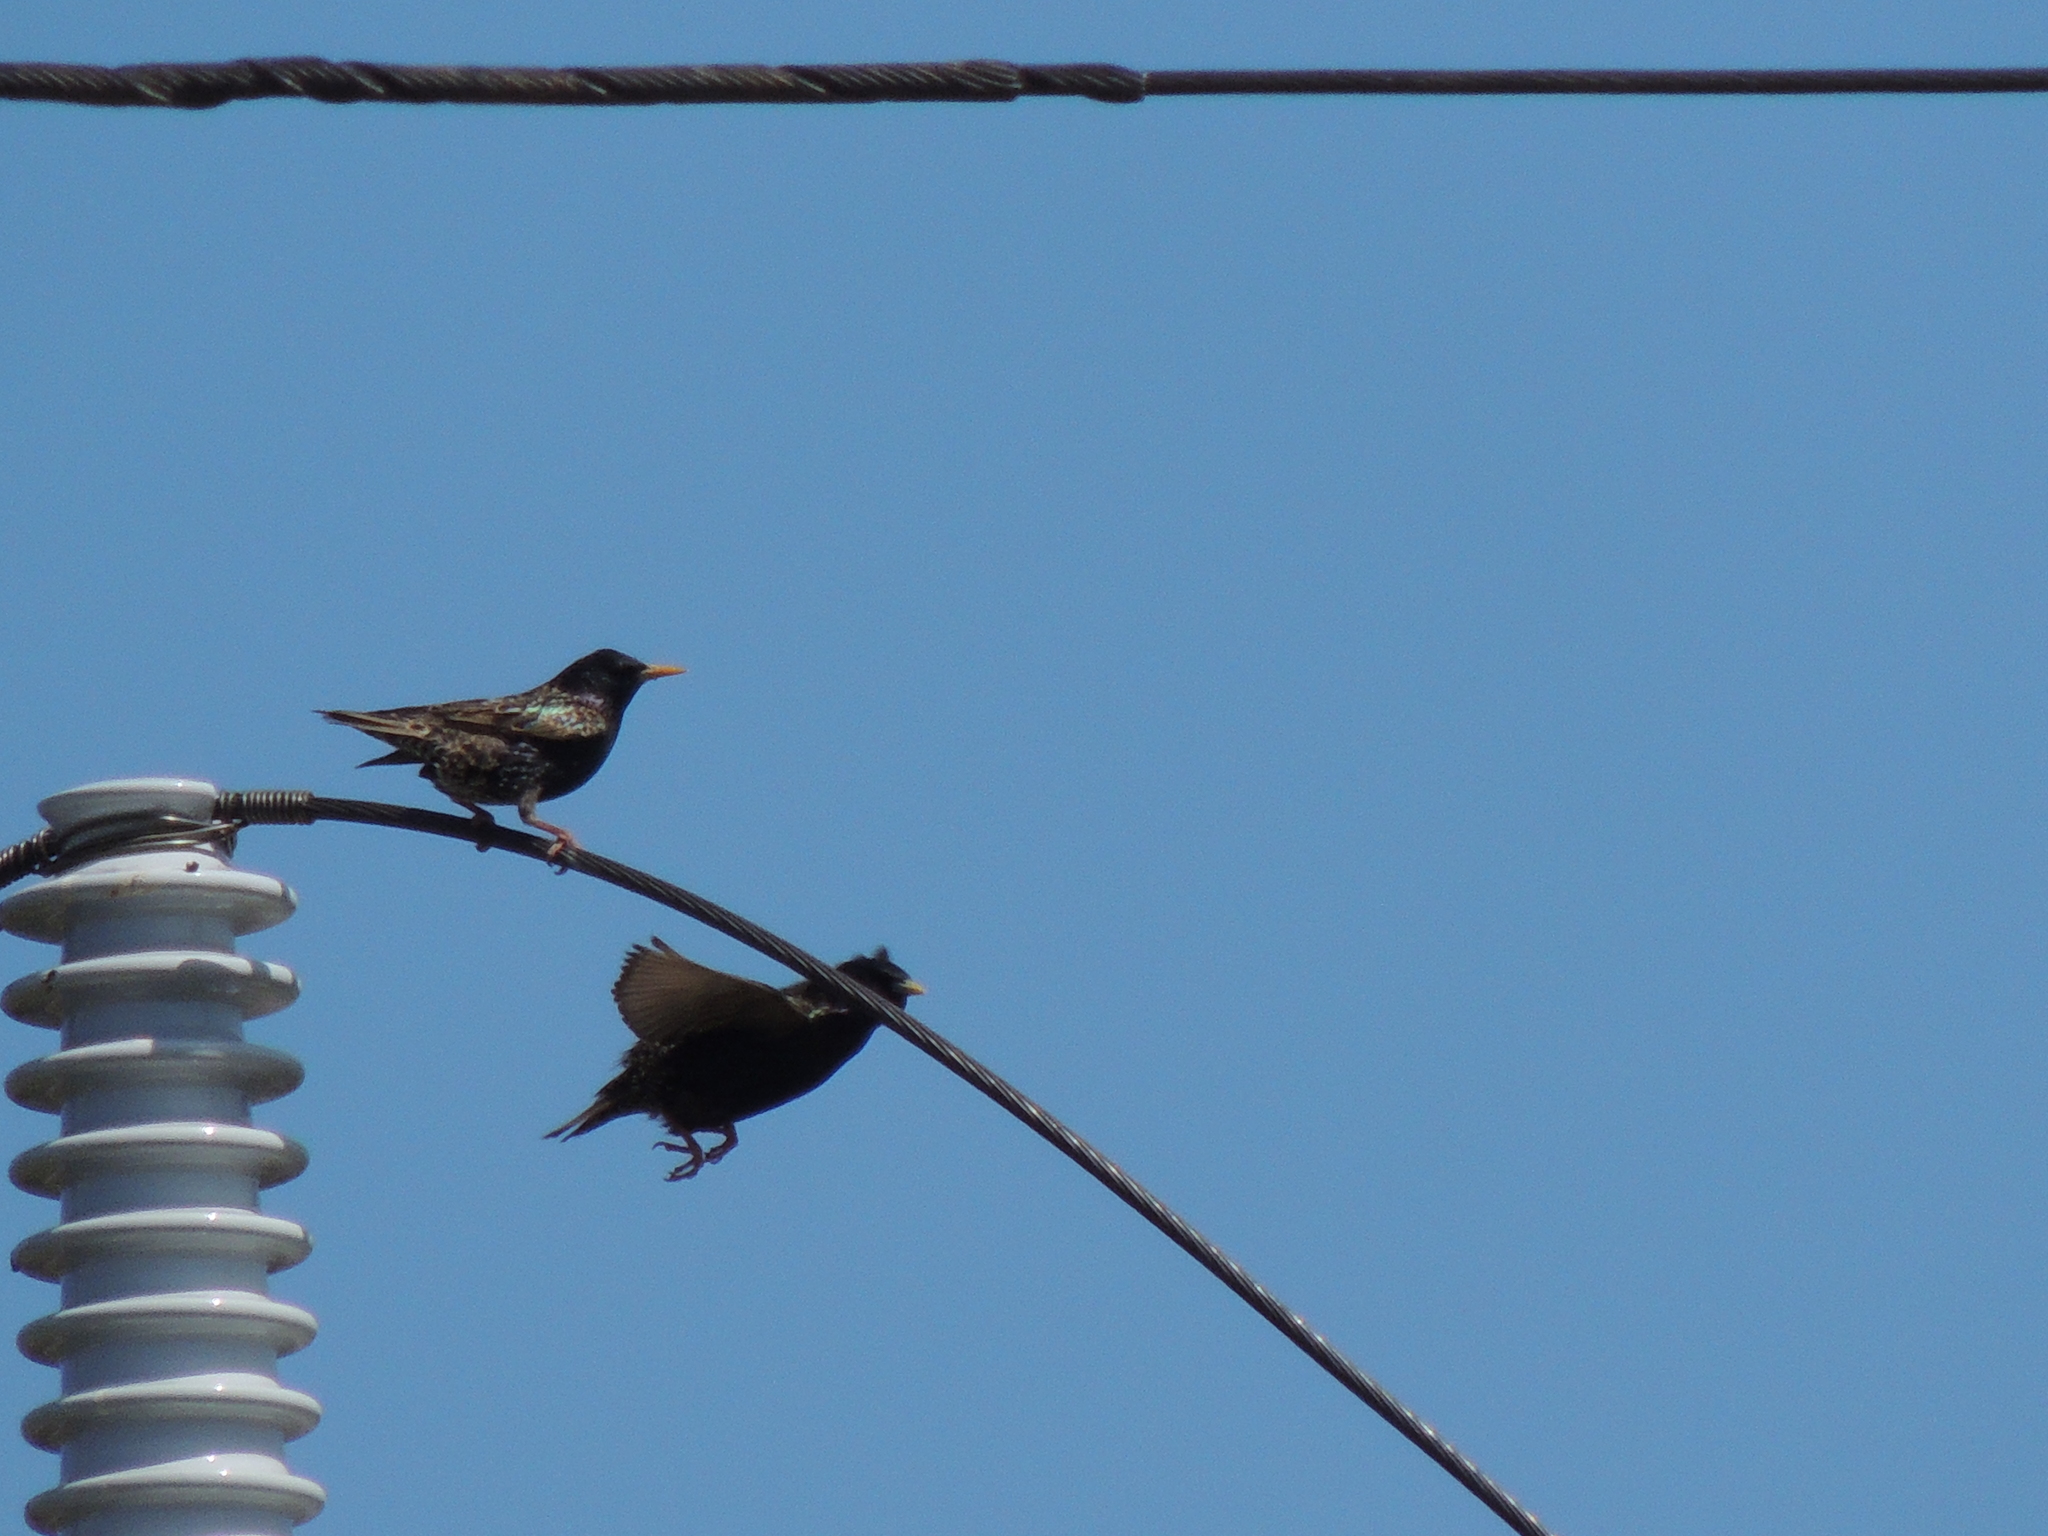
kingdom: Animalia
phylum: Chordata
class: Aves
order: Passeriformes
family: Sturnidae
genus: Sturnus
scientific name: Sturnus vulgaris
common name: Common starling
